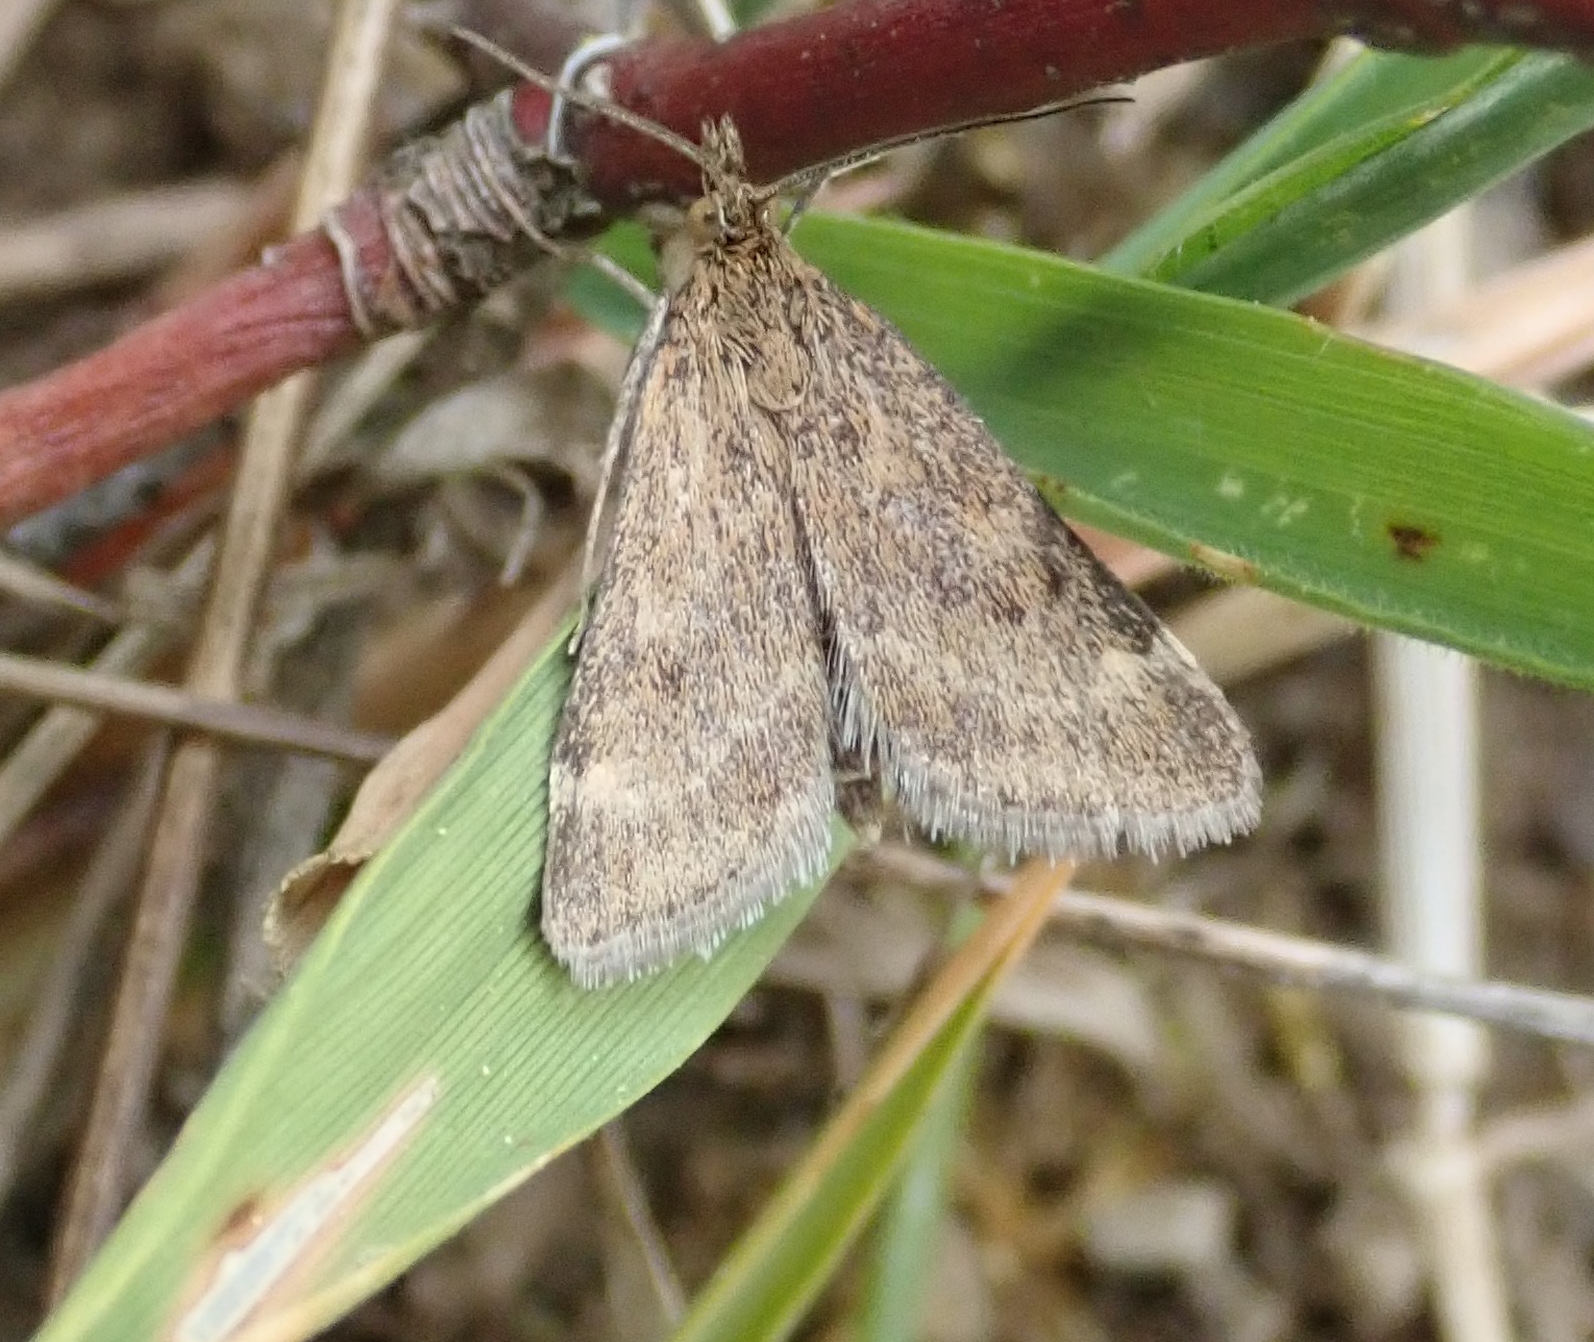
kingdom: Animalia
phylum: Arthropoda
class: Insecta
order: Lepidoptera
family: Crambidae
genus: Pyrausta
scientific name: Pyrausta despicata
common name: Straw-barred pearl
